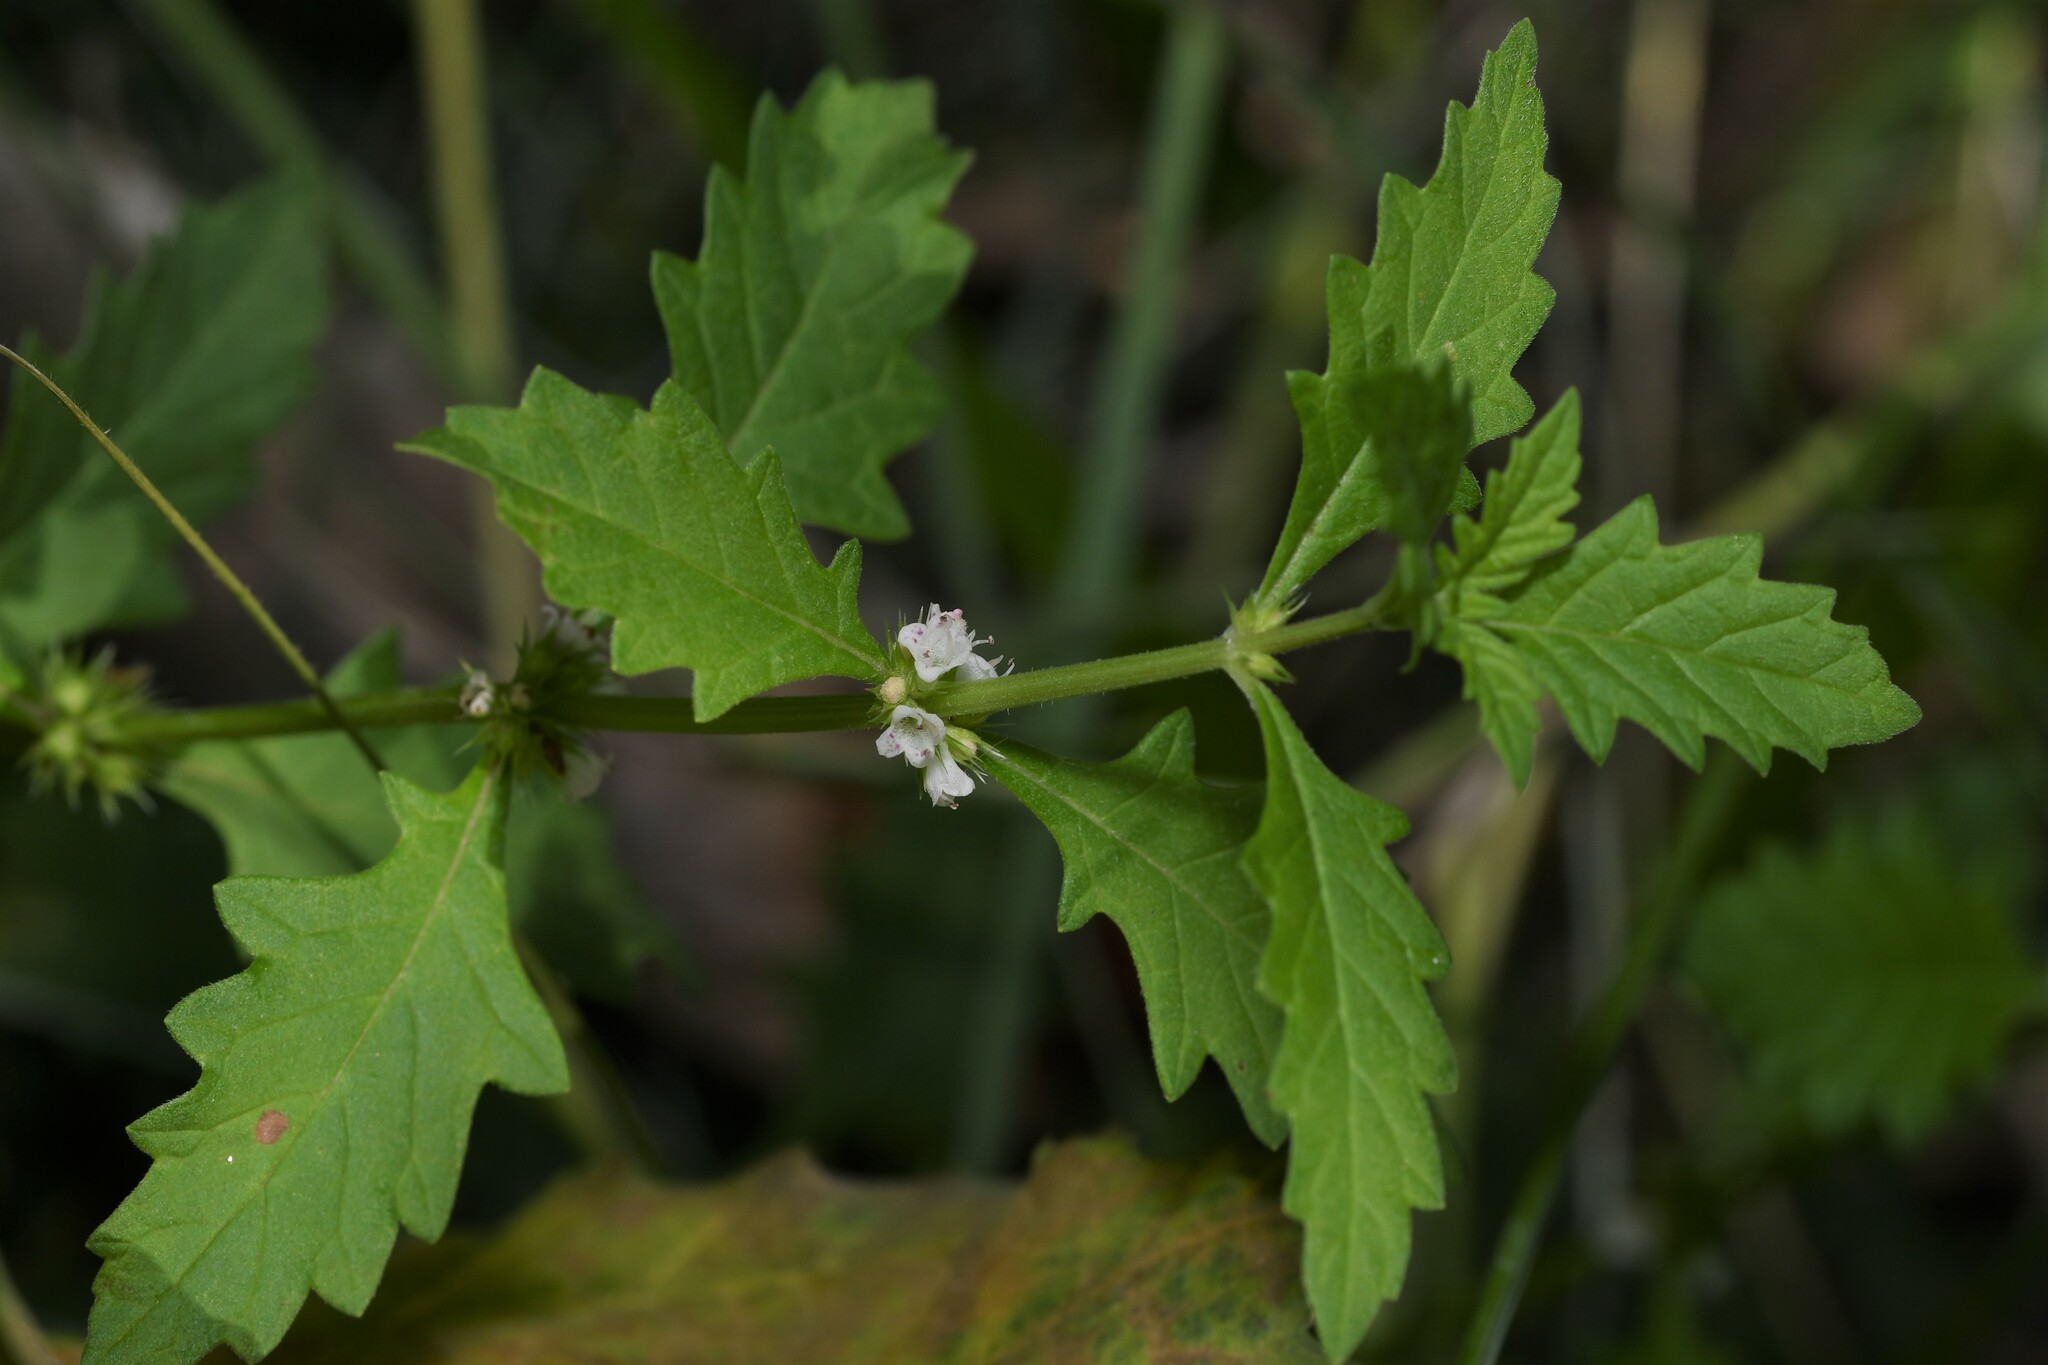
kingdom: Plantae
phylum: Tracheophyta
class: Magnoliopsida
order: Lamiales
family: Lamiaceae
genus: Lycopus
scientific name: Lycopus europaeus
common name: European bugleweed
